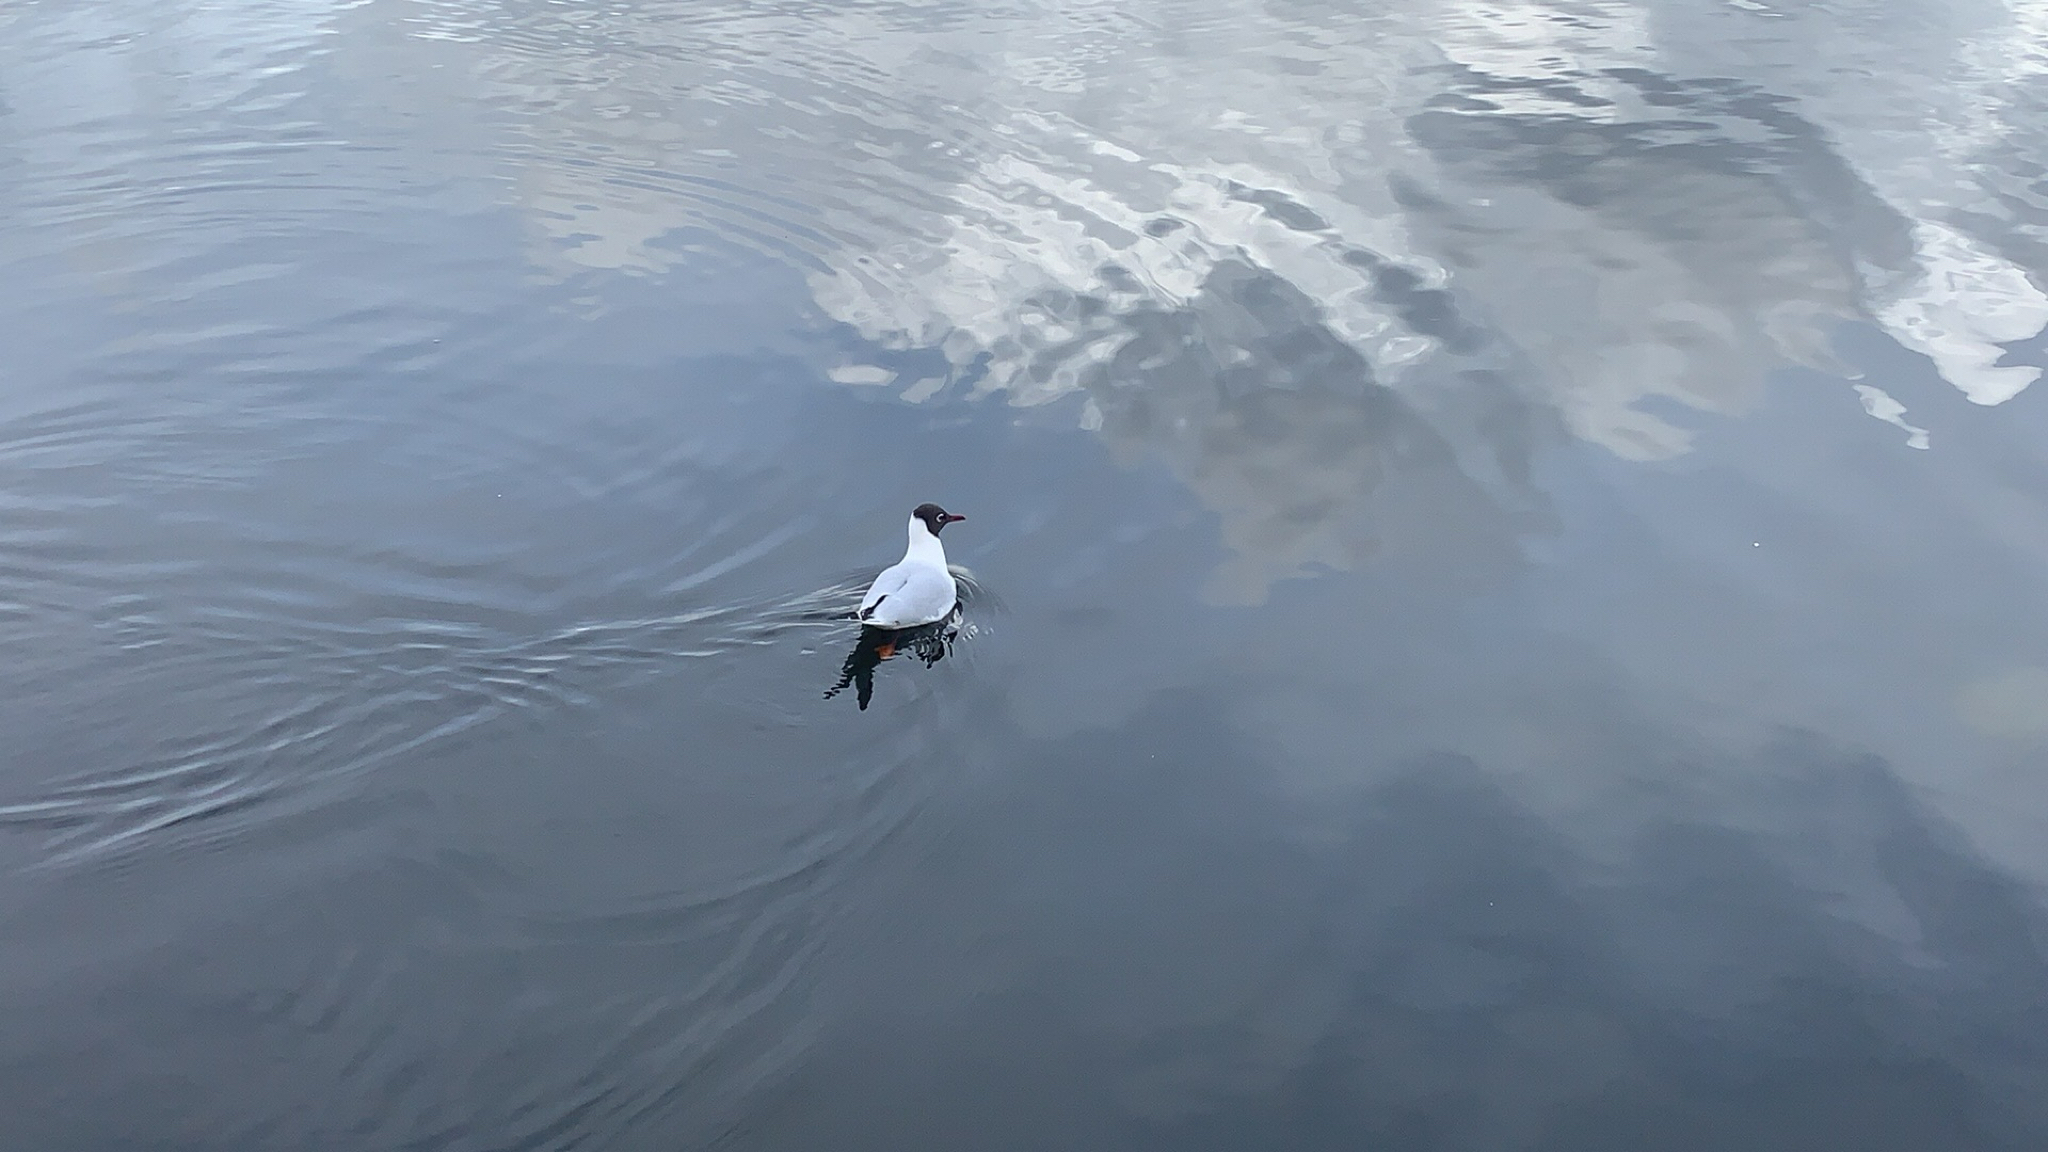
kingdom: Animalia
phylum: Chordata
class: Aves
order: Charadriiformes
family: Laridae
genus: Chroicocephalus
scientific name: Chroicocephalus ridibundus
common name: Black-headed gull
